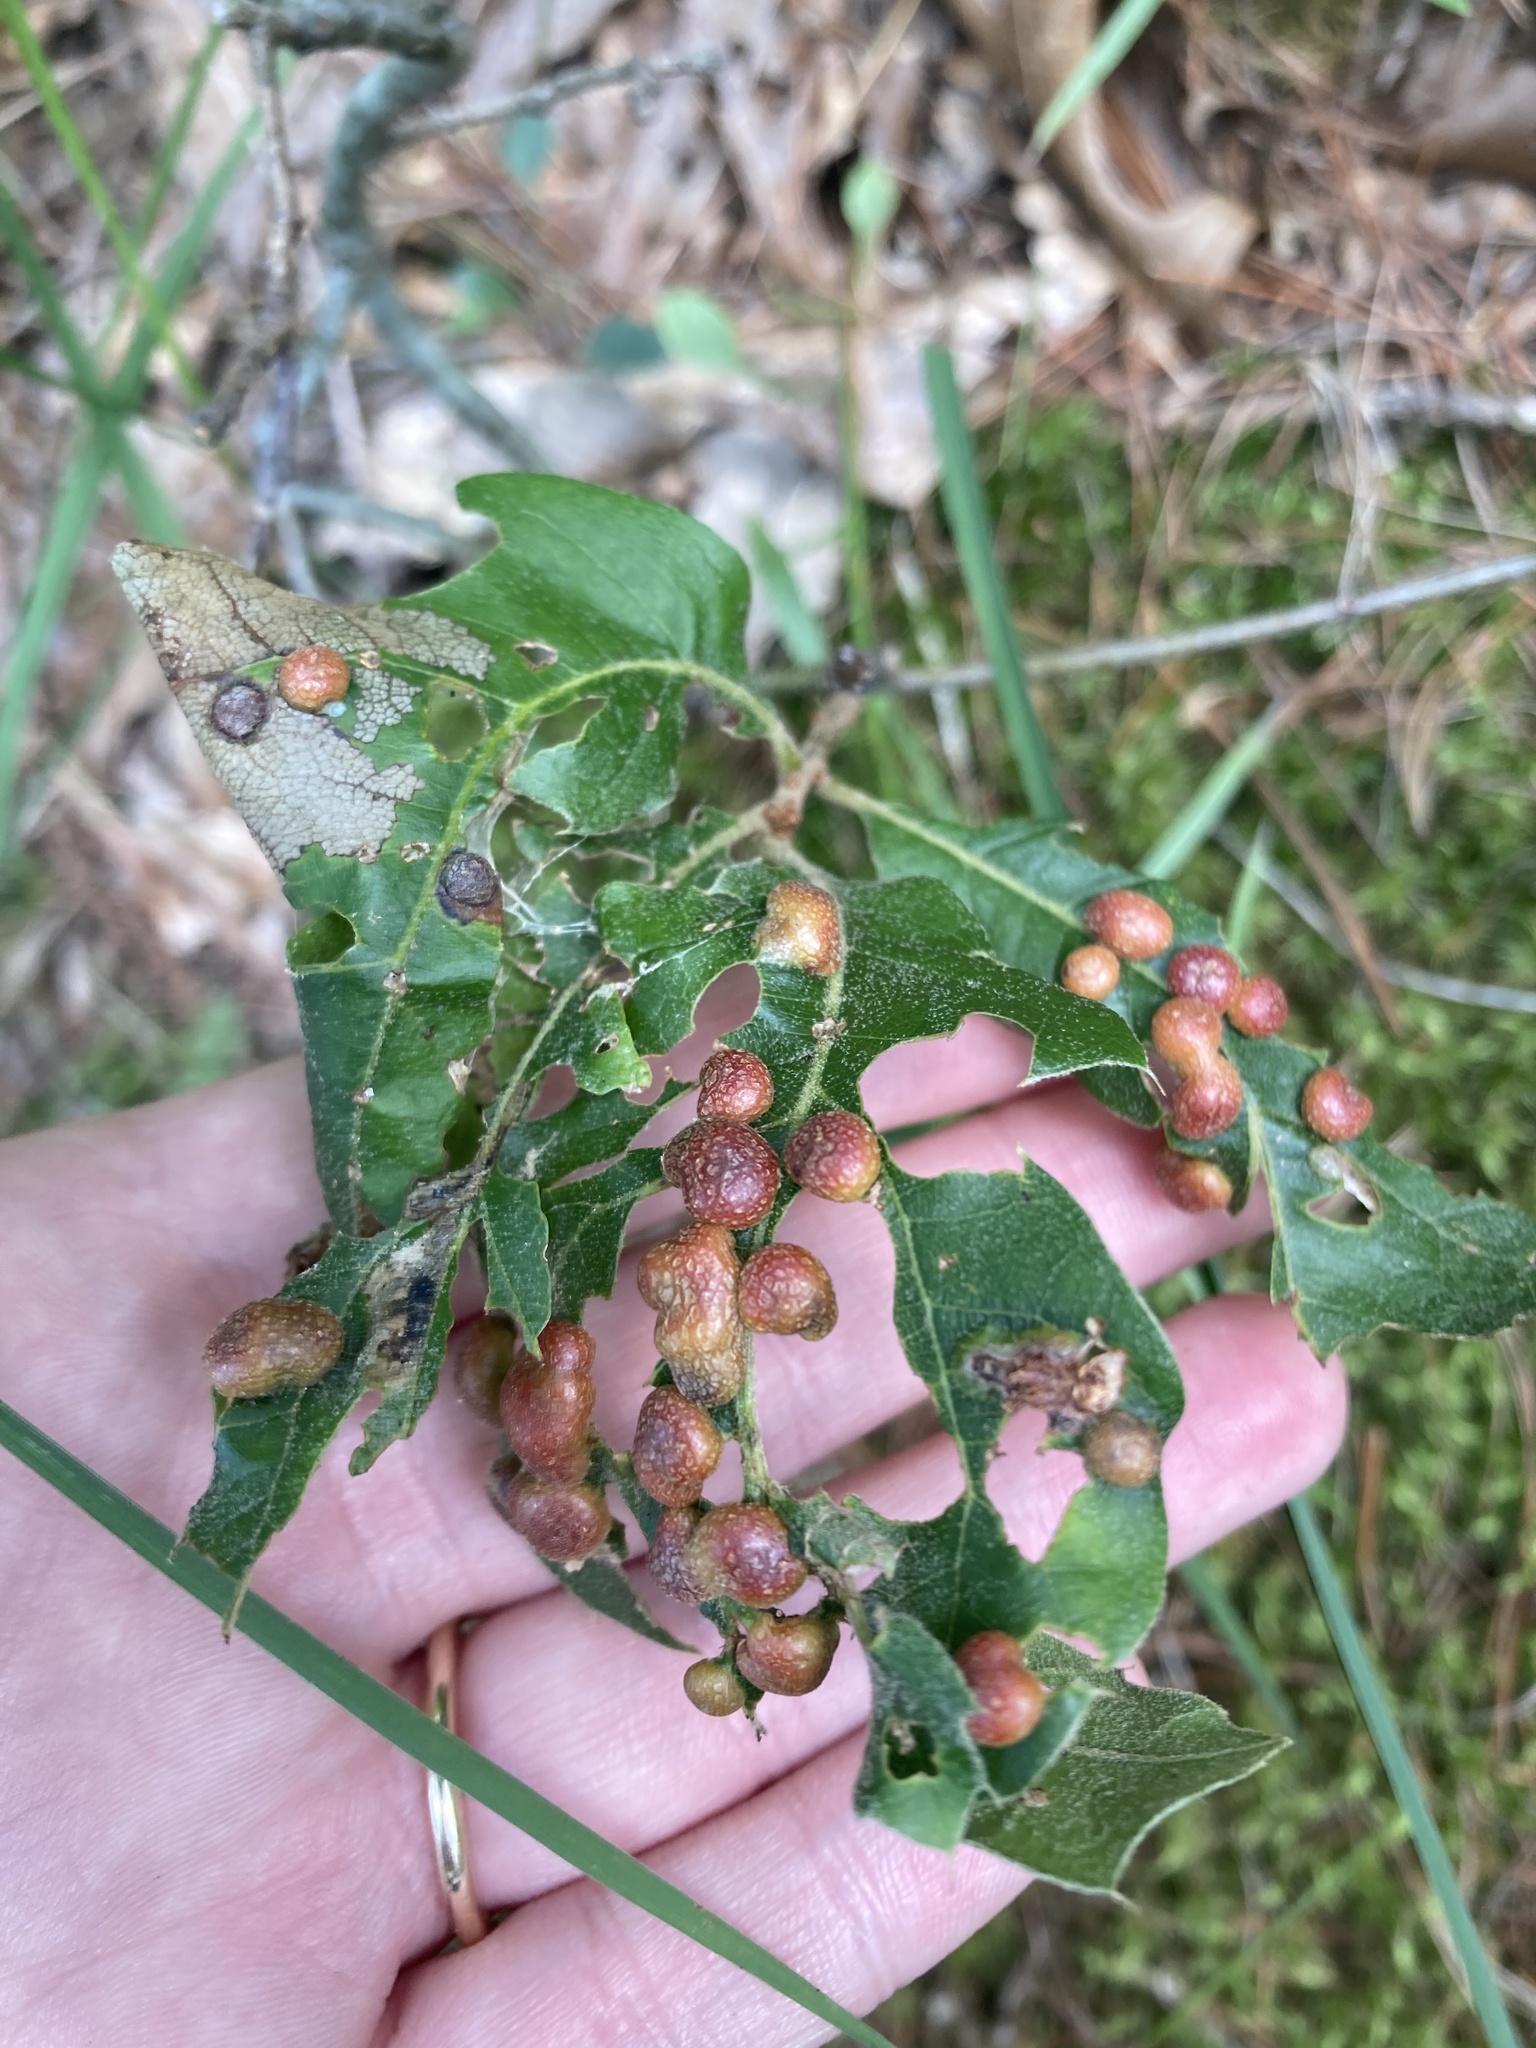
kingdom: Animalia
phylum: Arthropoda
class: Insecta
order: Diptera
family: Cecidomyiidae
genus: Polystepha
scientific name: Polystepha pilulae
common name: Oak leaf gall midge
